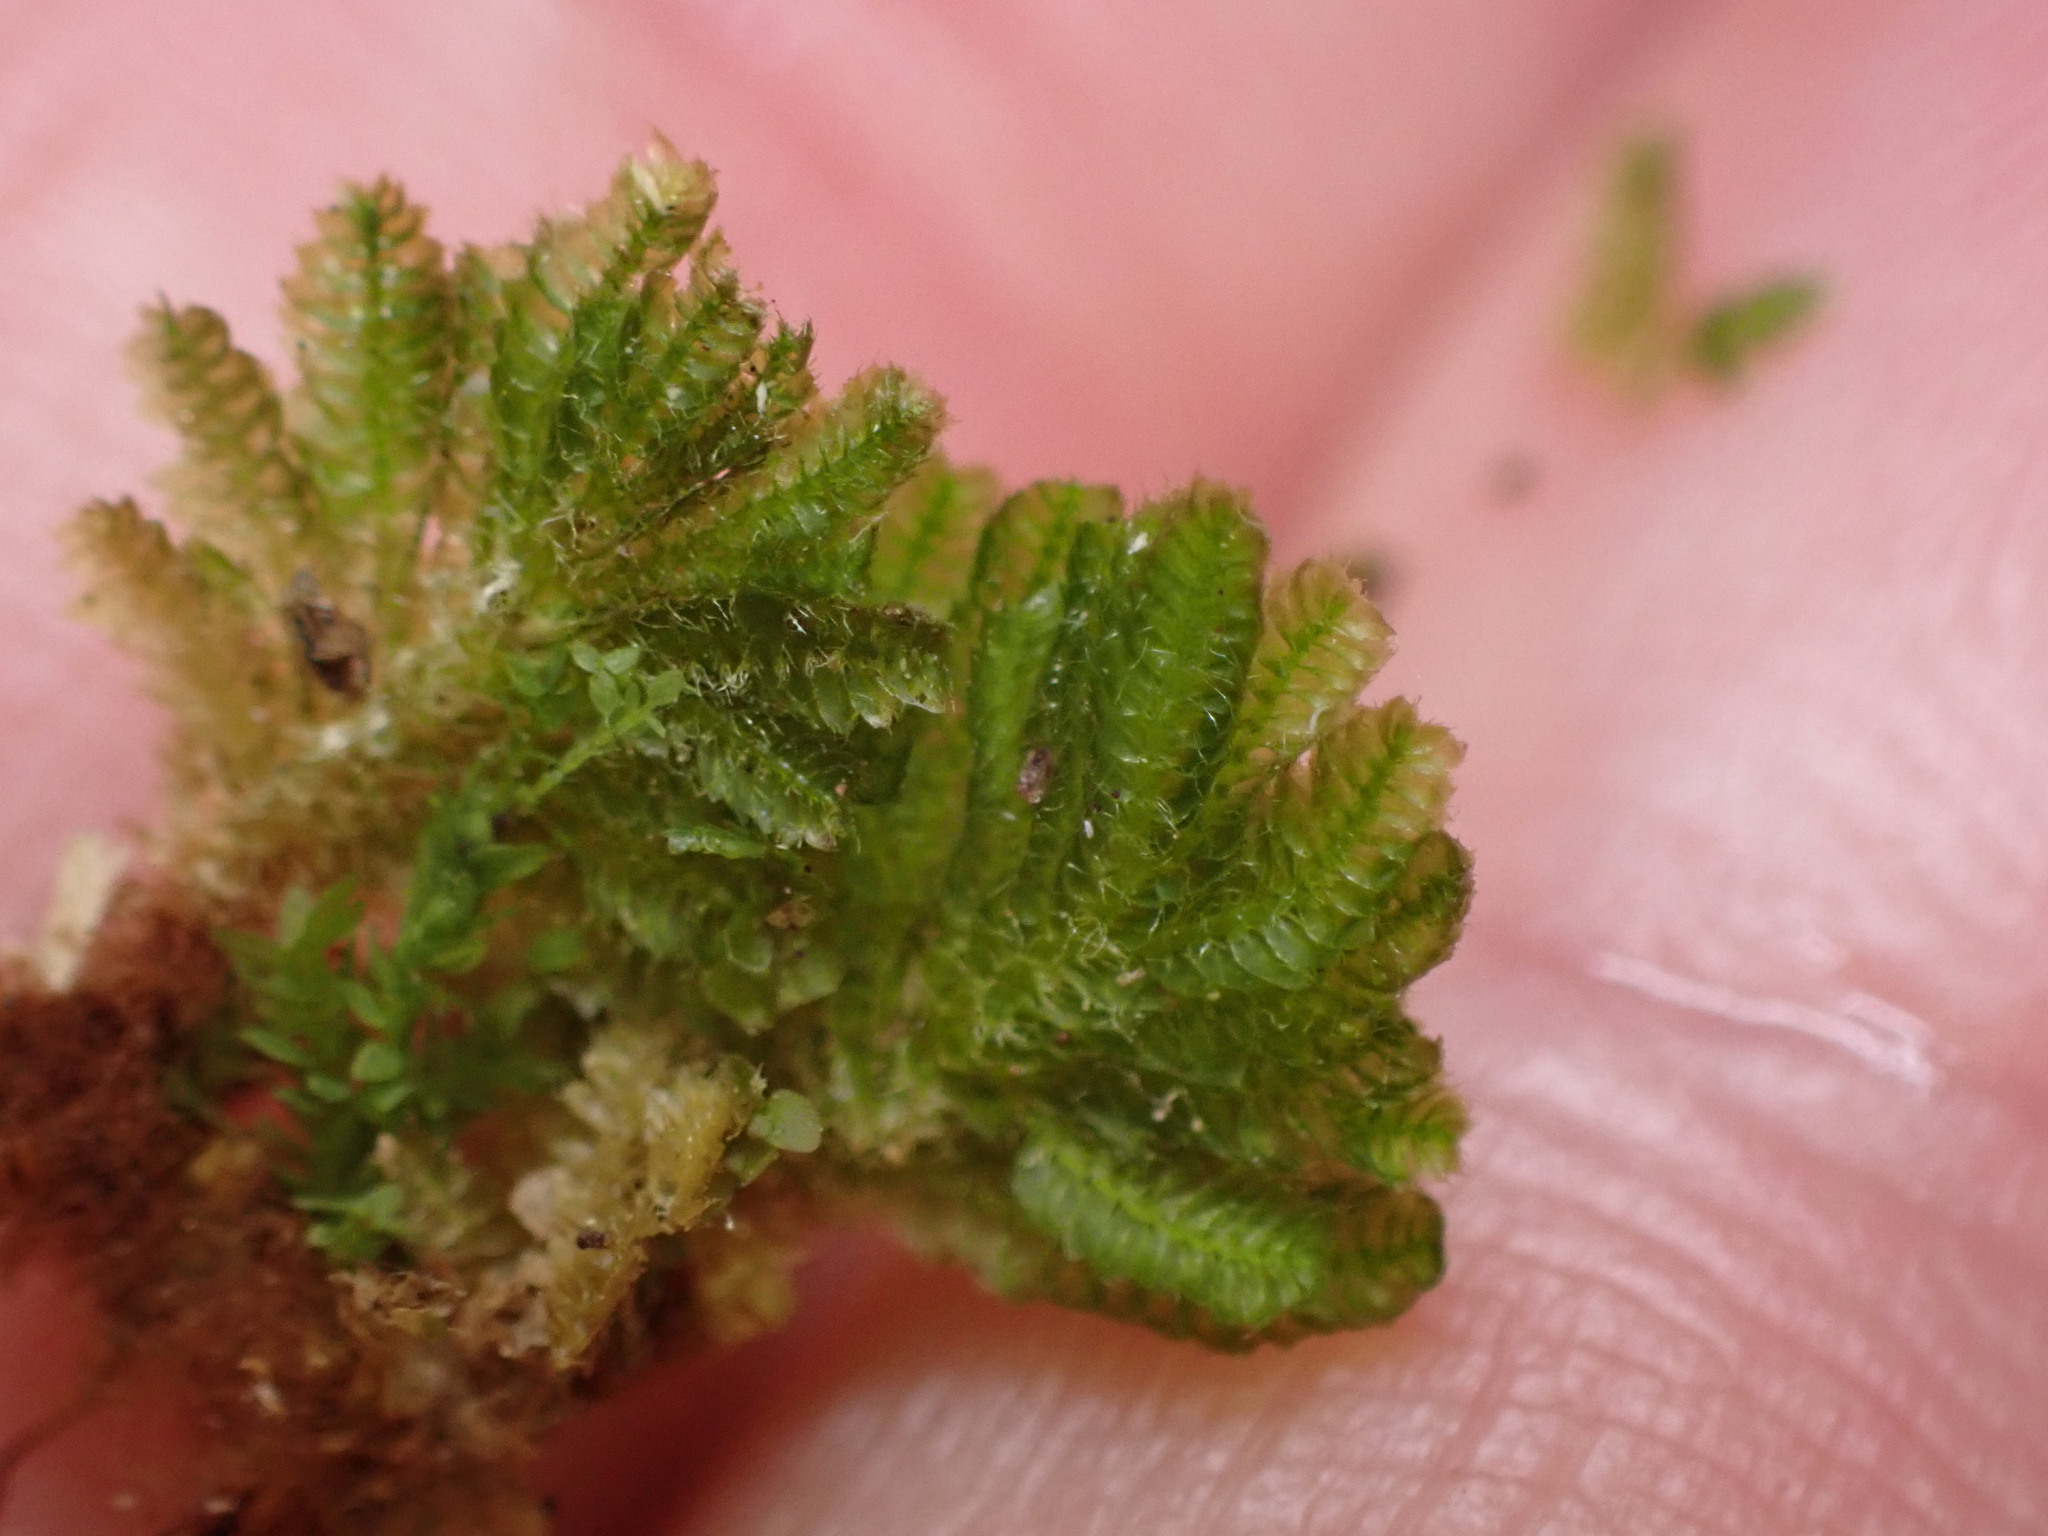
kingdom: Plantae
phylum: Bryophyta
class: Bryopsida
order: Hypopterygiales
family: Hypopterygiaceae
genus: Catharomnion
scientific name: Catharomnion ciliatum
